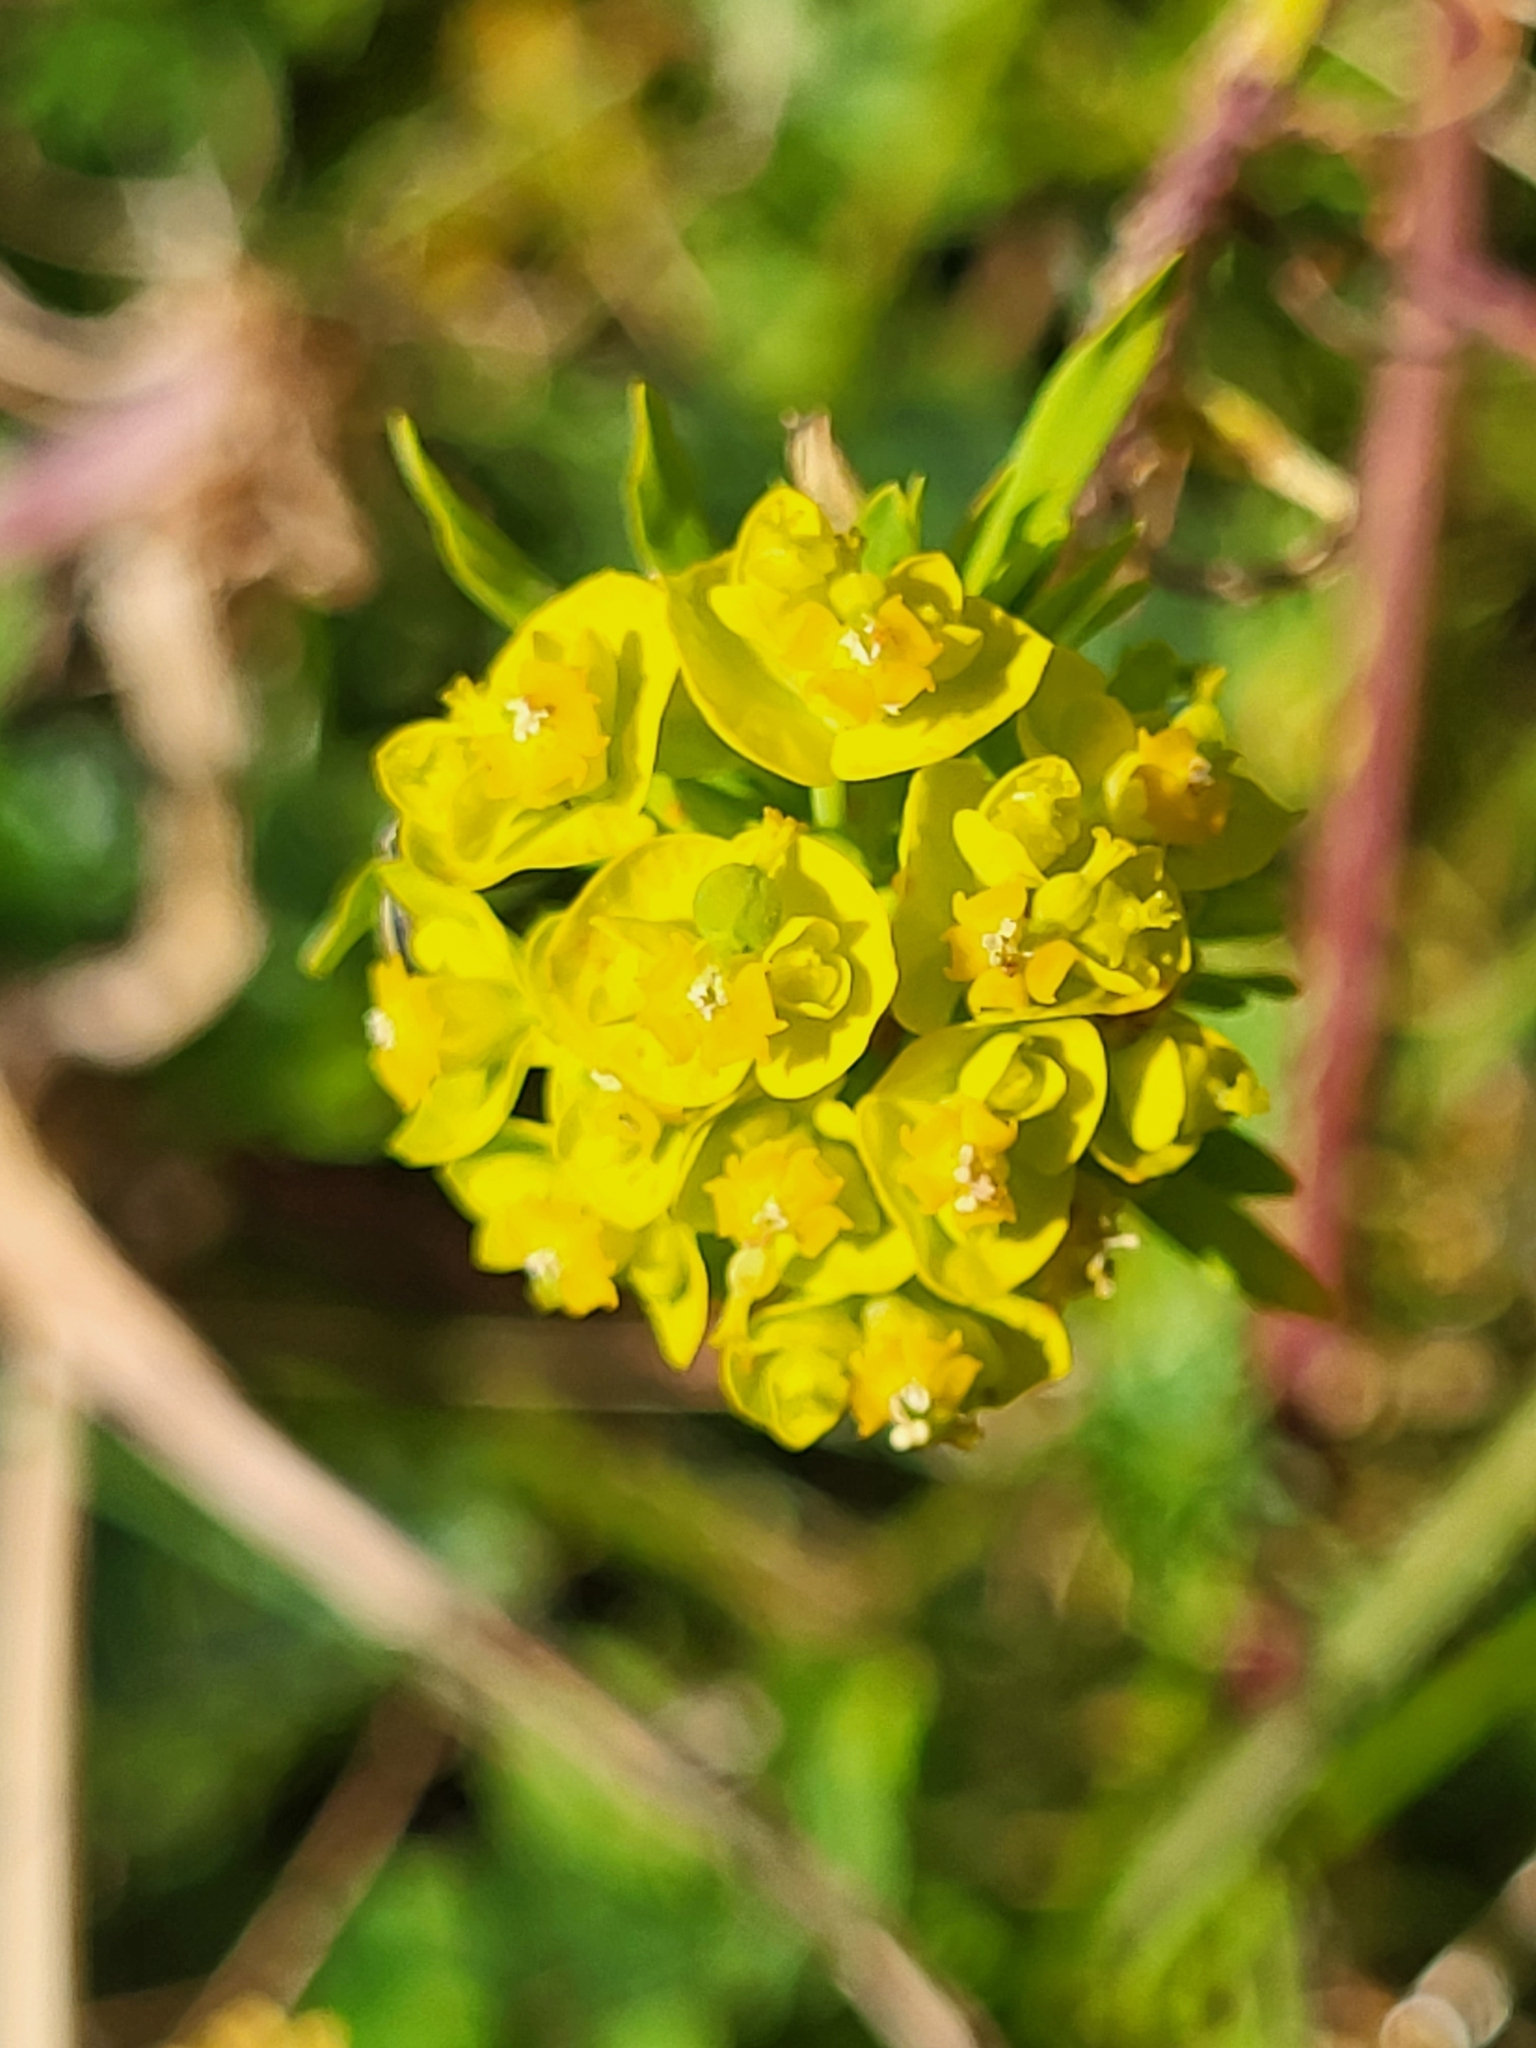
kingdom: Plantae
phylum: Tracheophyta
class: Magnoliopsida
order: Malpighiales
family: Euphorbiaceae
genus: Euphorbia
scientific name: Euphorbia cyparissias
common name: Cypress spurge
